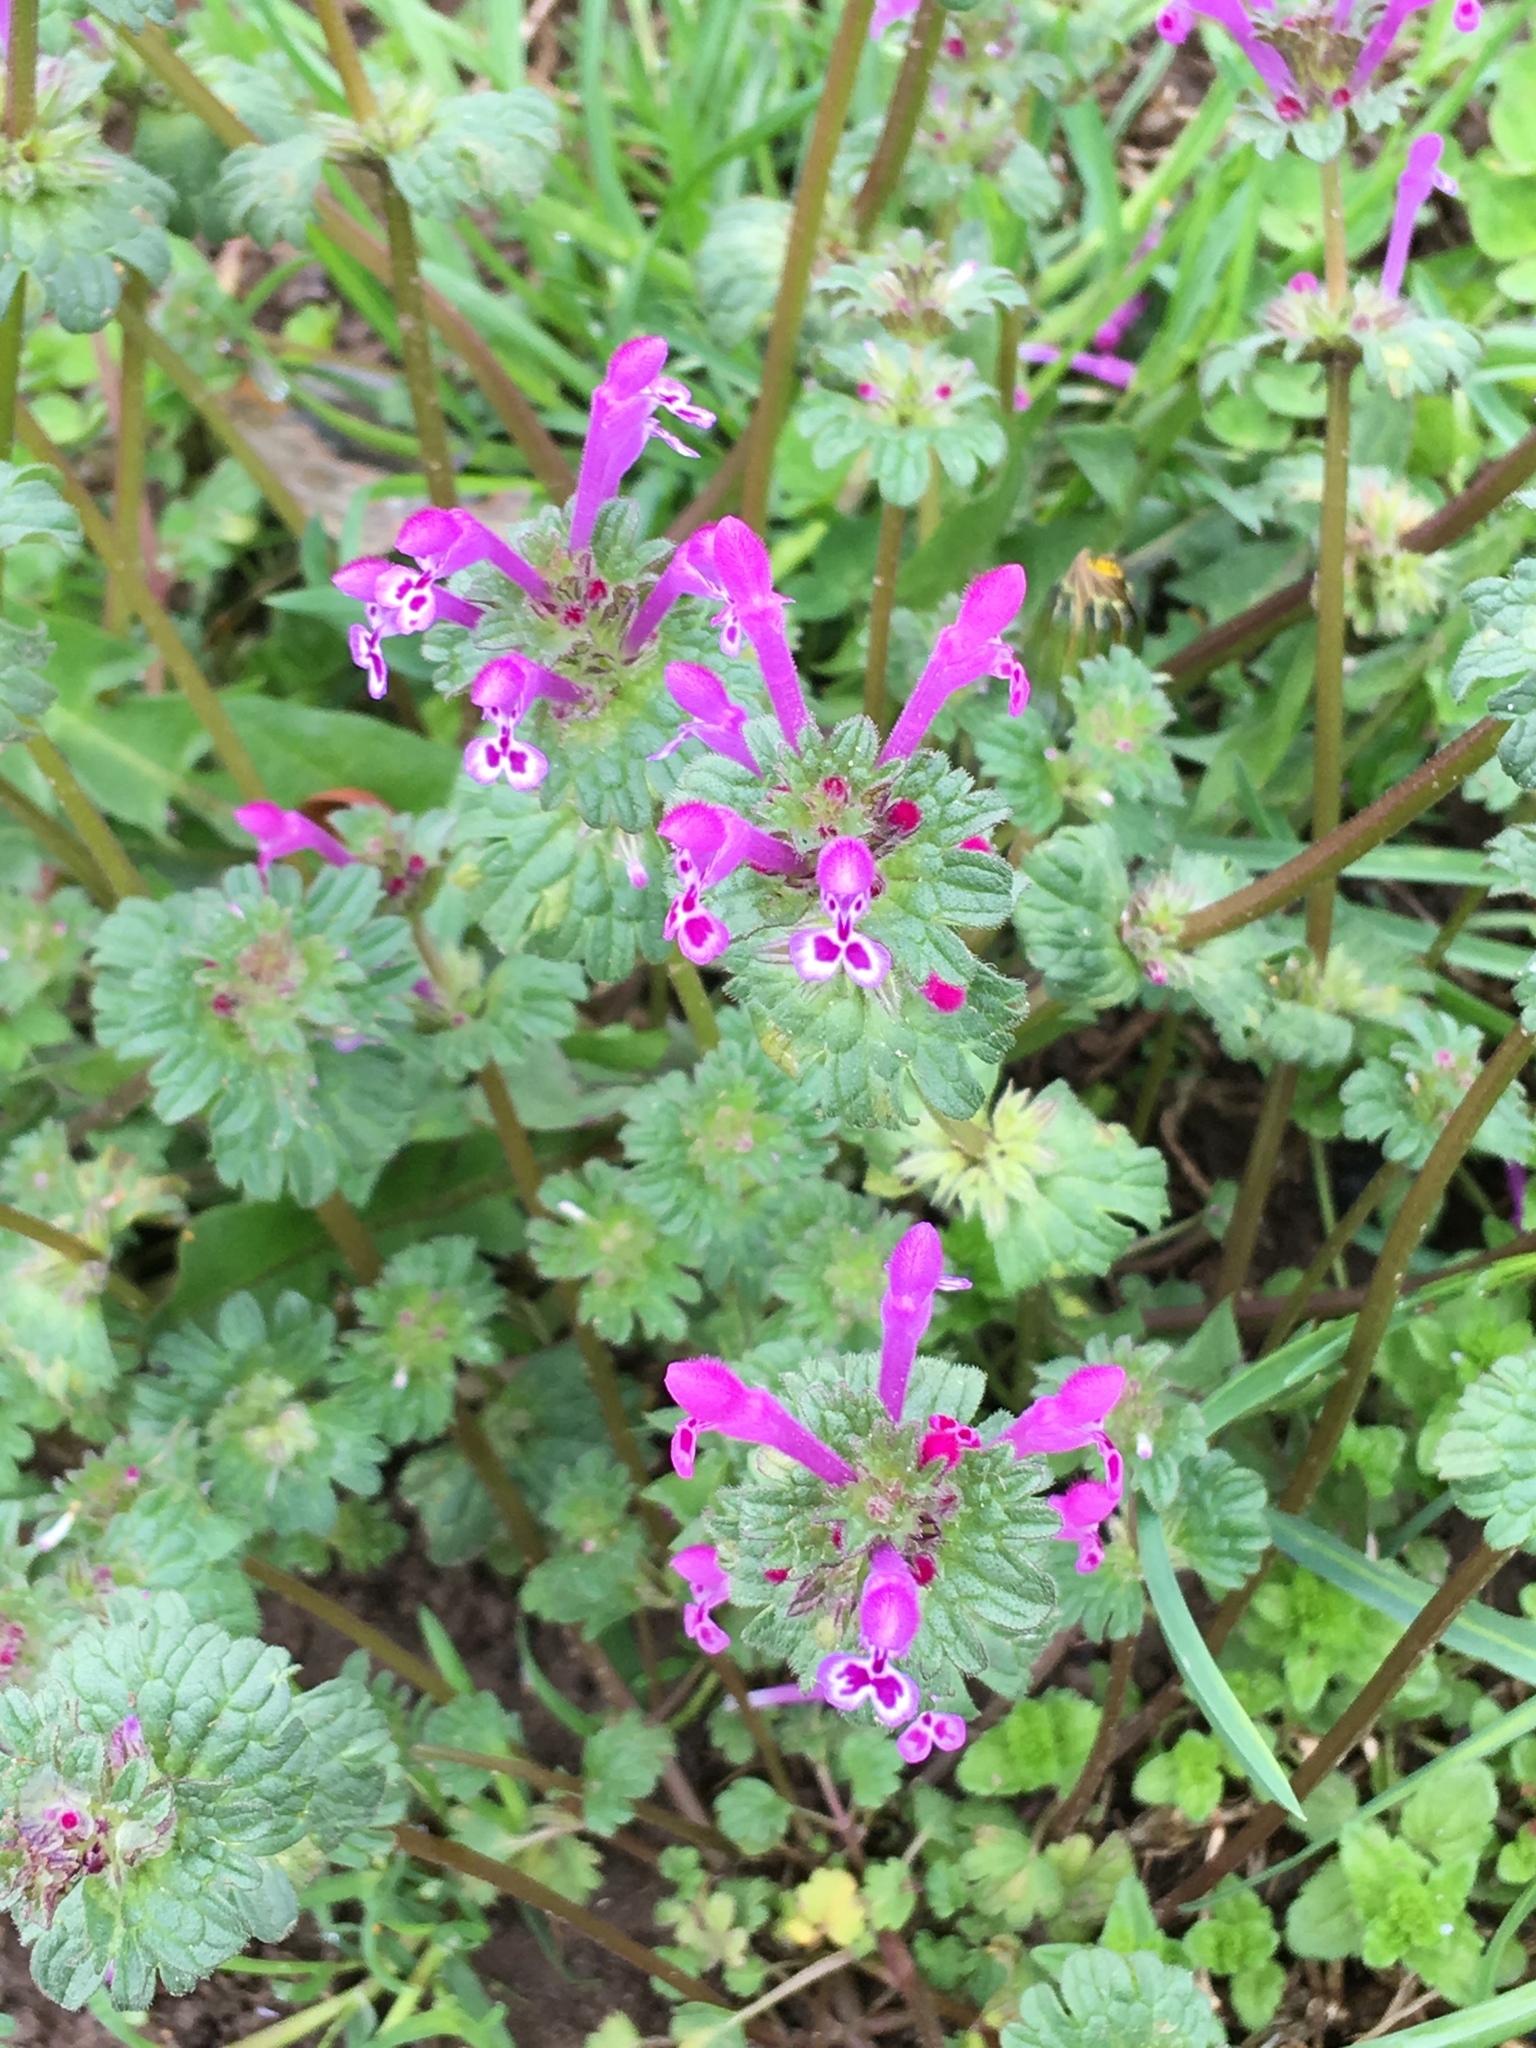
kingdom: Plantae
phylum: Tracheophyta
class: Magnoliopsida
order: Lamiales
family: Lamiaceae
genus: Lamium
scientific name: Lamium amplexicaule
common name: Henbit dead-nettle
